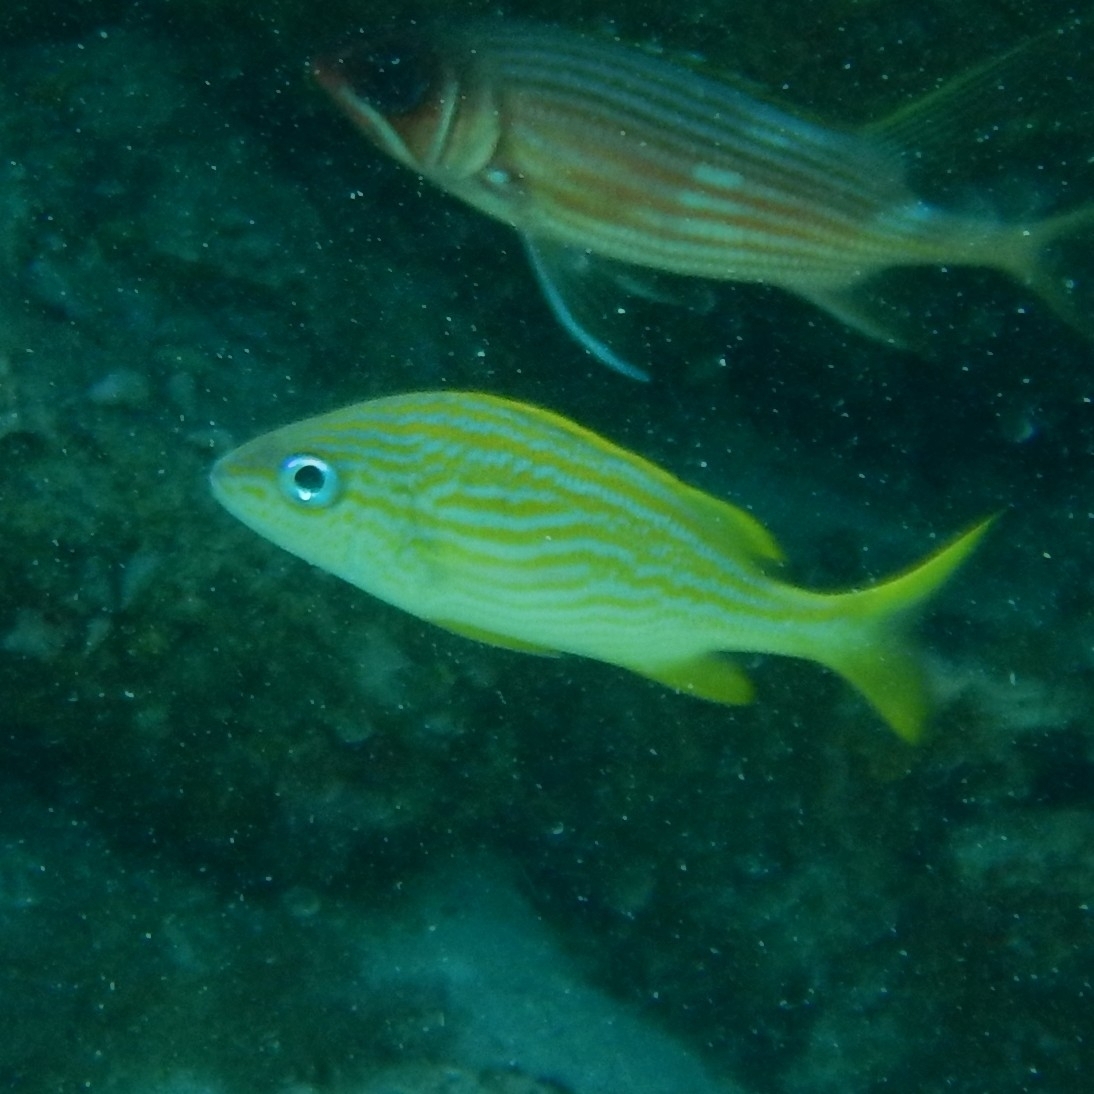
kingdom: Animalia
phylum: Chordata
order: Perciformes
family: Haemulidae
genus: Haemulon
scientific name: Haemulon flavolineatum
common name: French grunt
